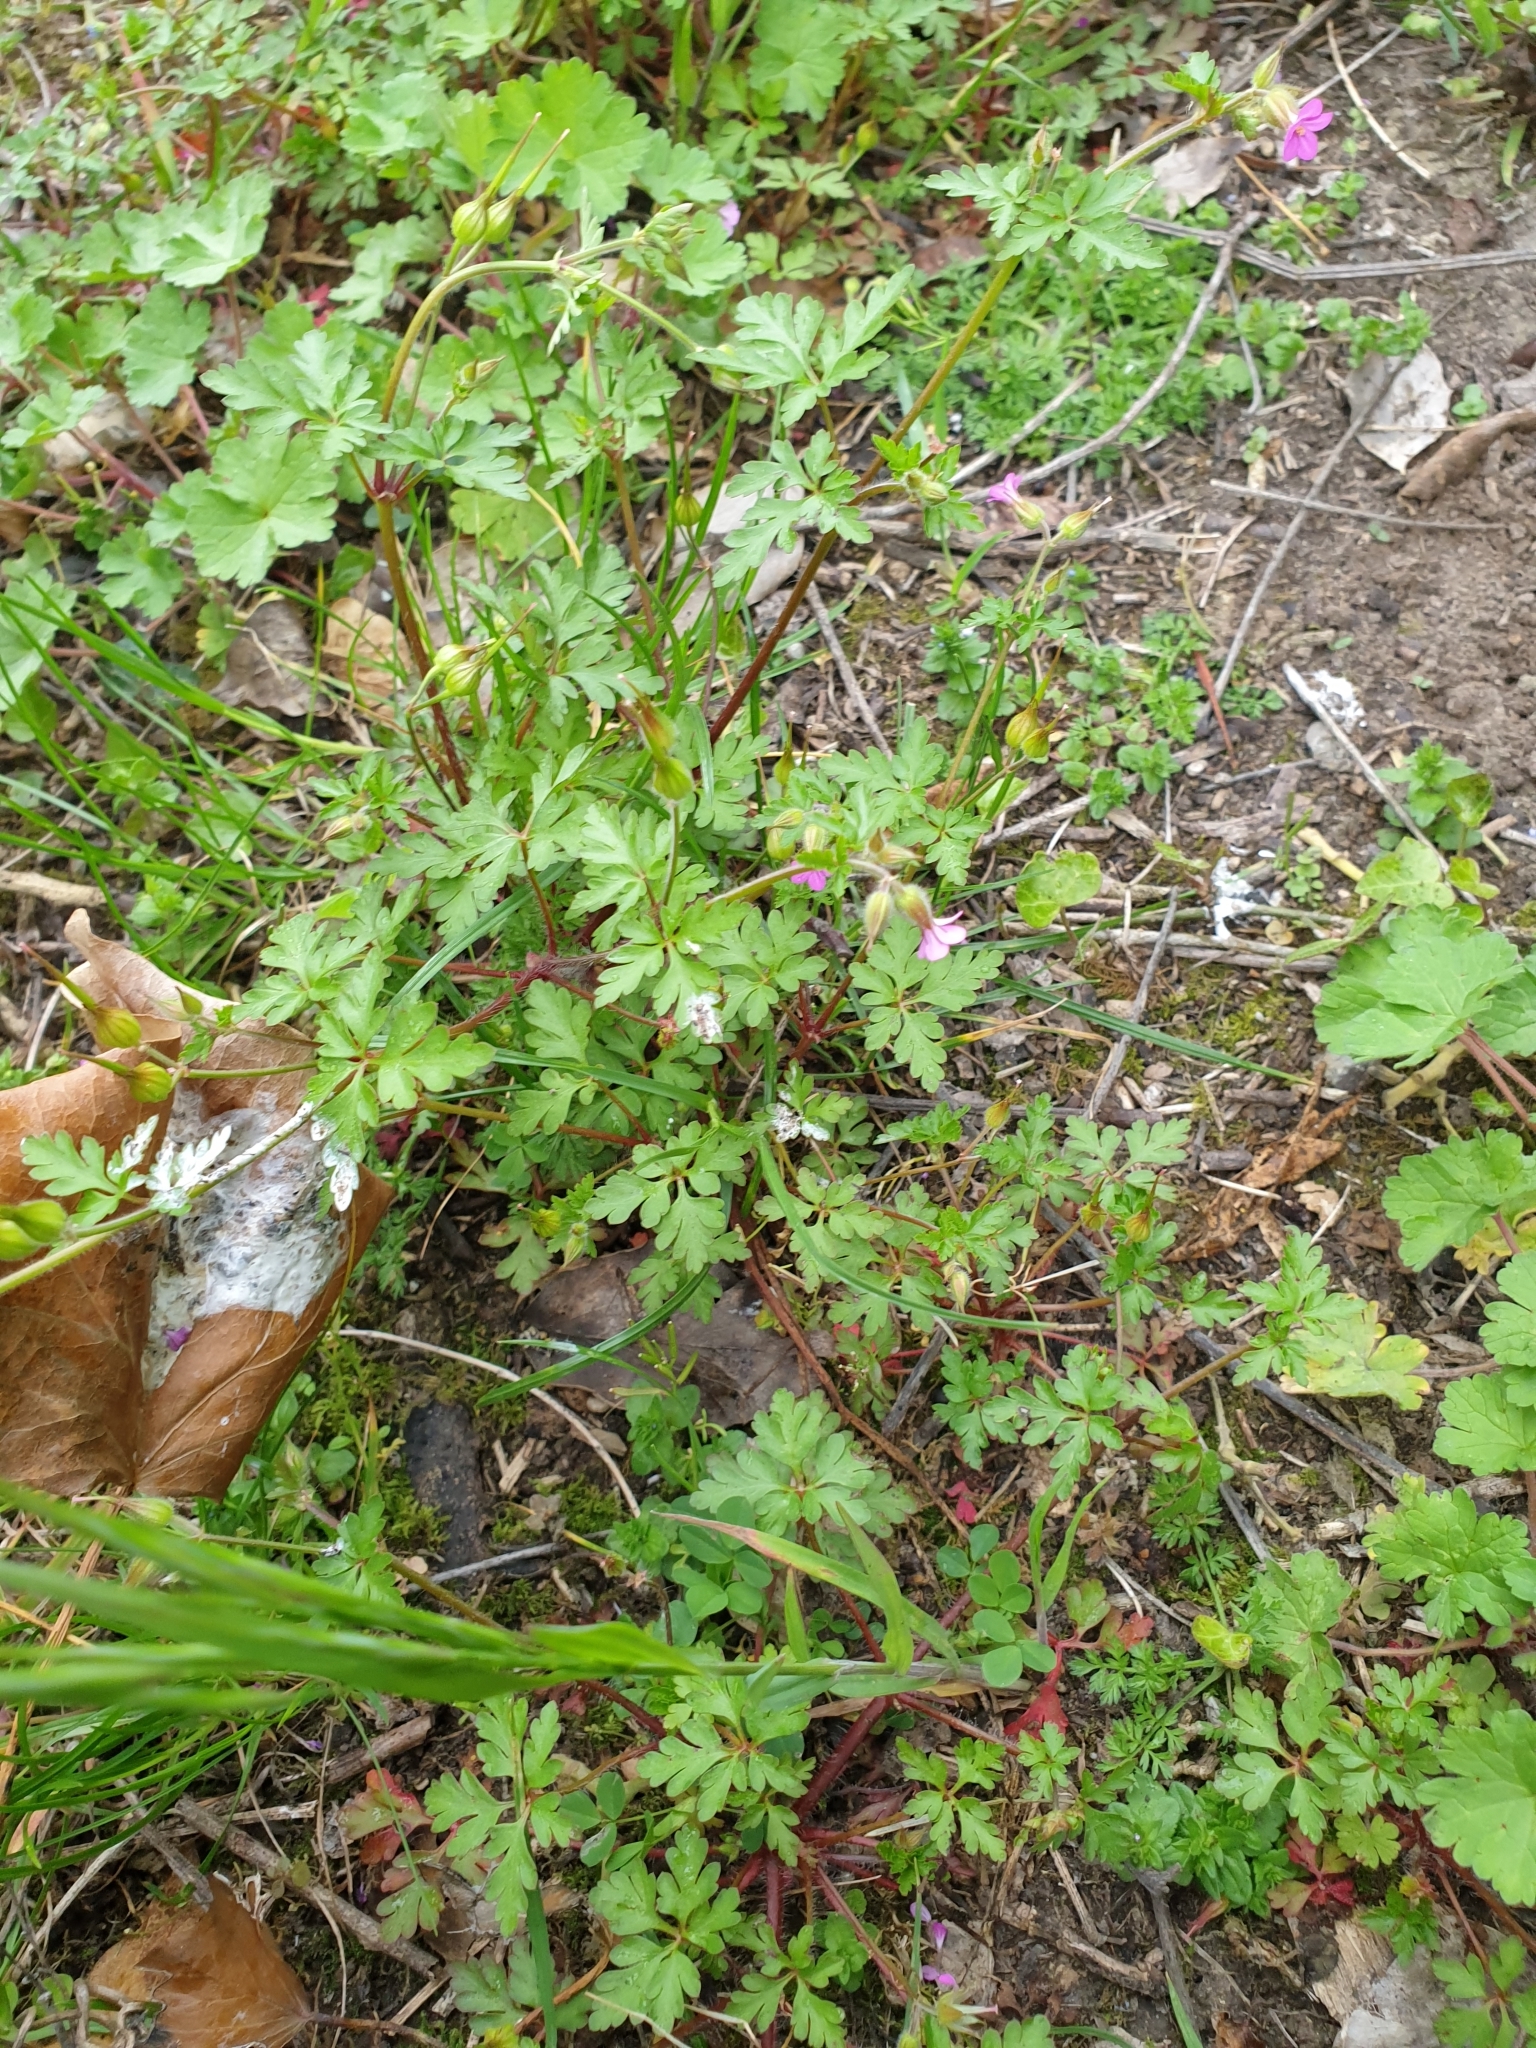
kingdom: Plantae
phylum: Tracheophyta
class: Magnoliopsida
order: Geraniales
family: Geraniaceae
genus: Geranium
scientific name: Geranium purpureum
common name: Little-robin
